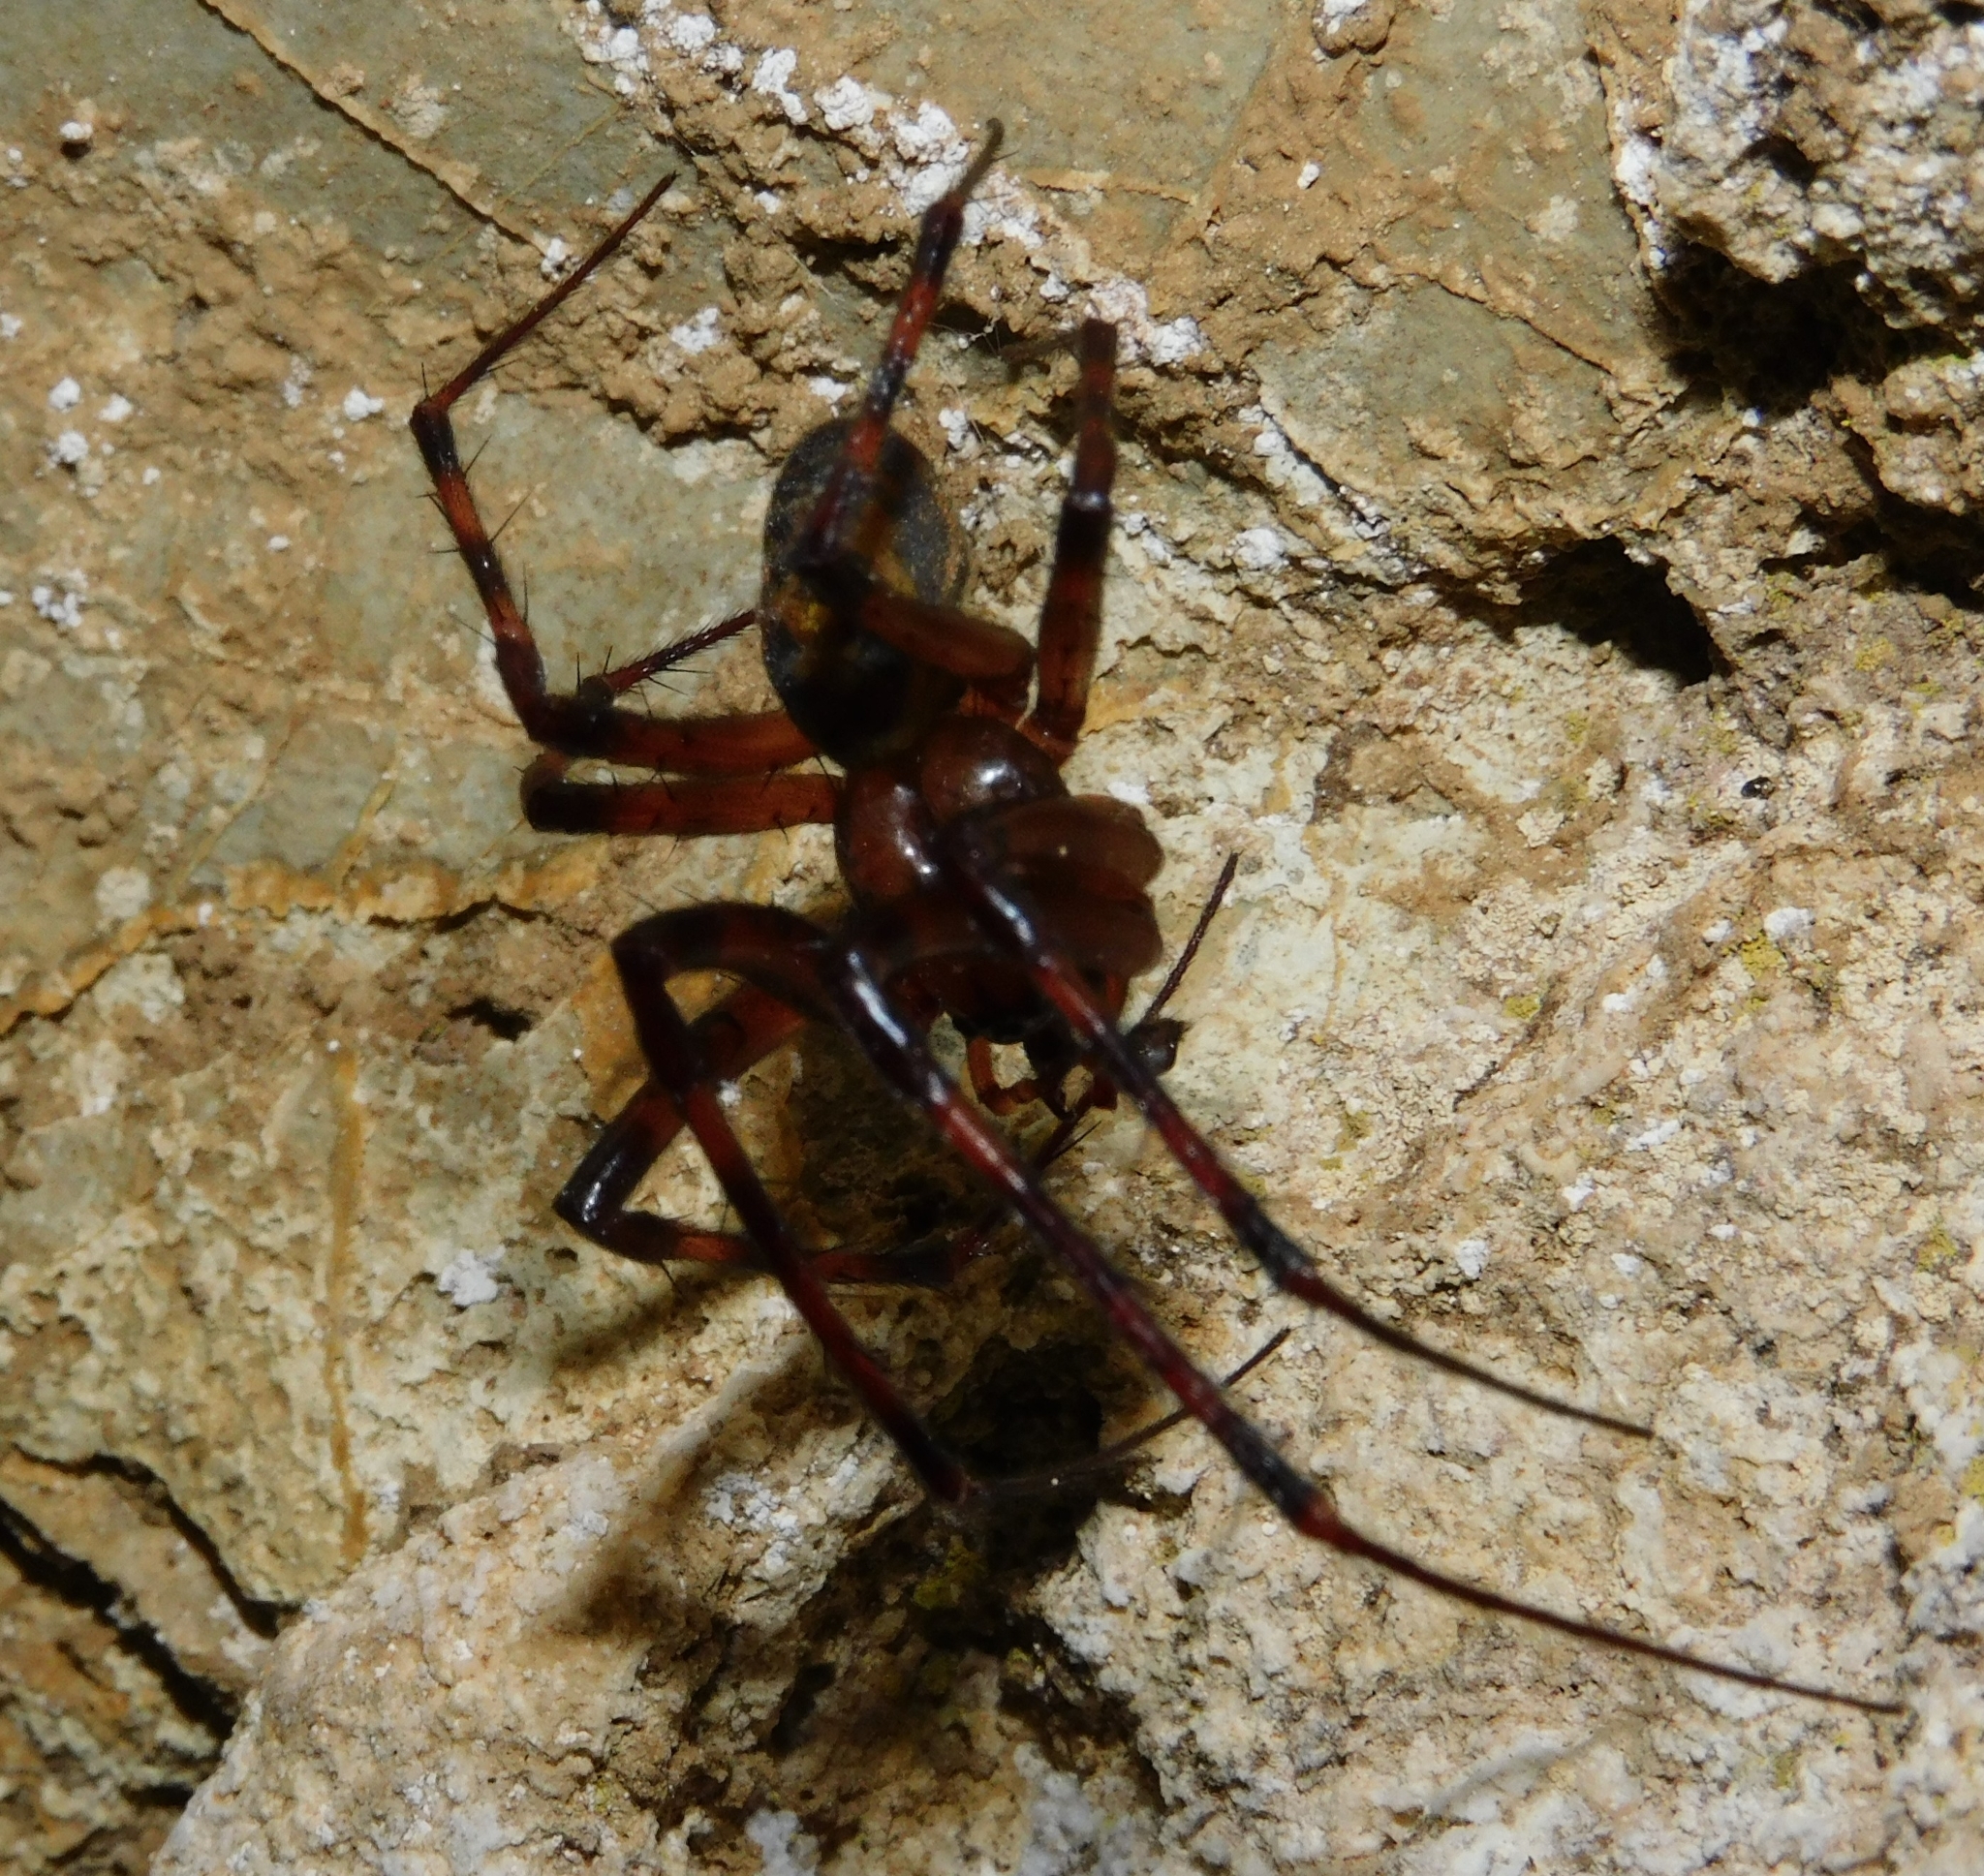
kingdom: Animalia
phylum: Arthropoda
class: Arachnida
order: Araneae
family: Tetragnathidae
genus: Meta
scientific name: Meta menardi
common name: Cave spider
